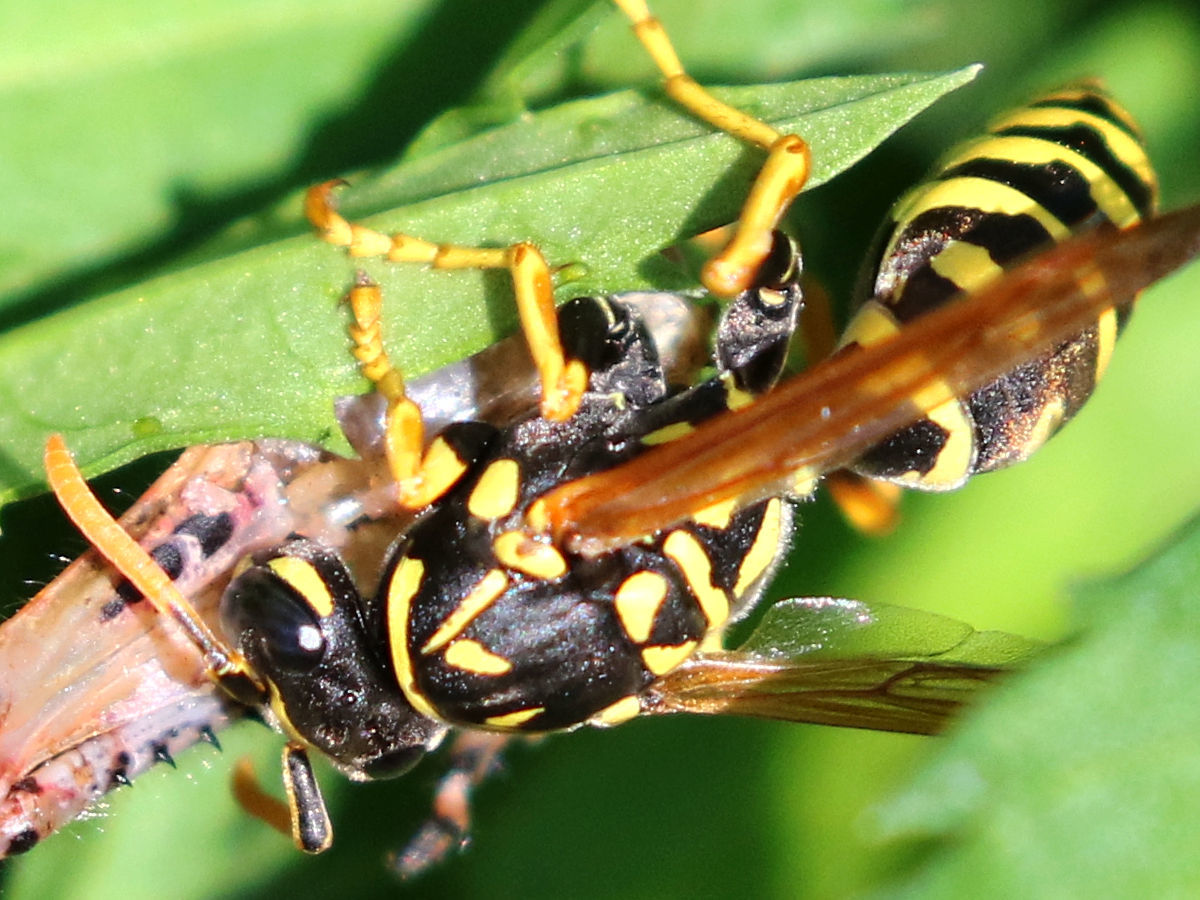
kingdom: Animalia
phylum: Arthropoda
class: Insecta
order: Hymenoptera
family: Eumenidae
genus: Polistes
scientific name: Polistes dominula
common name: Paper wasp
